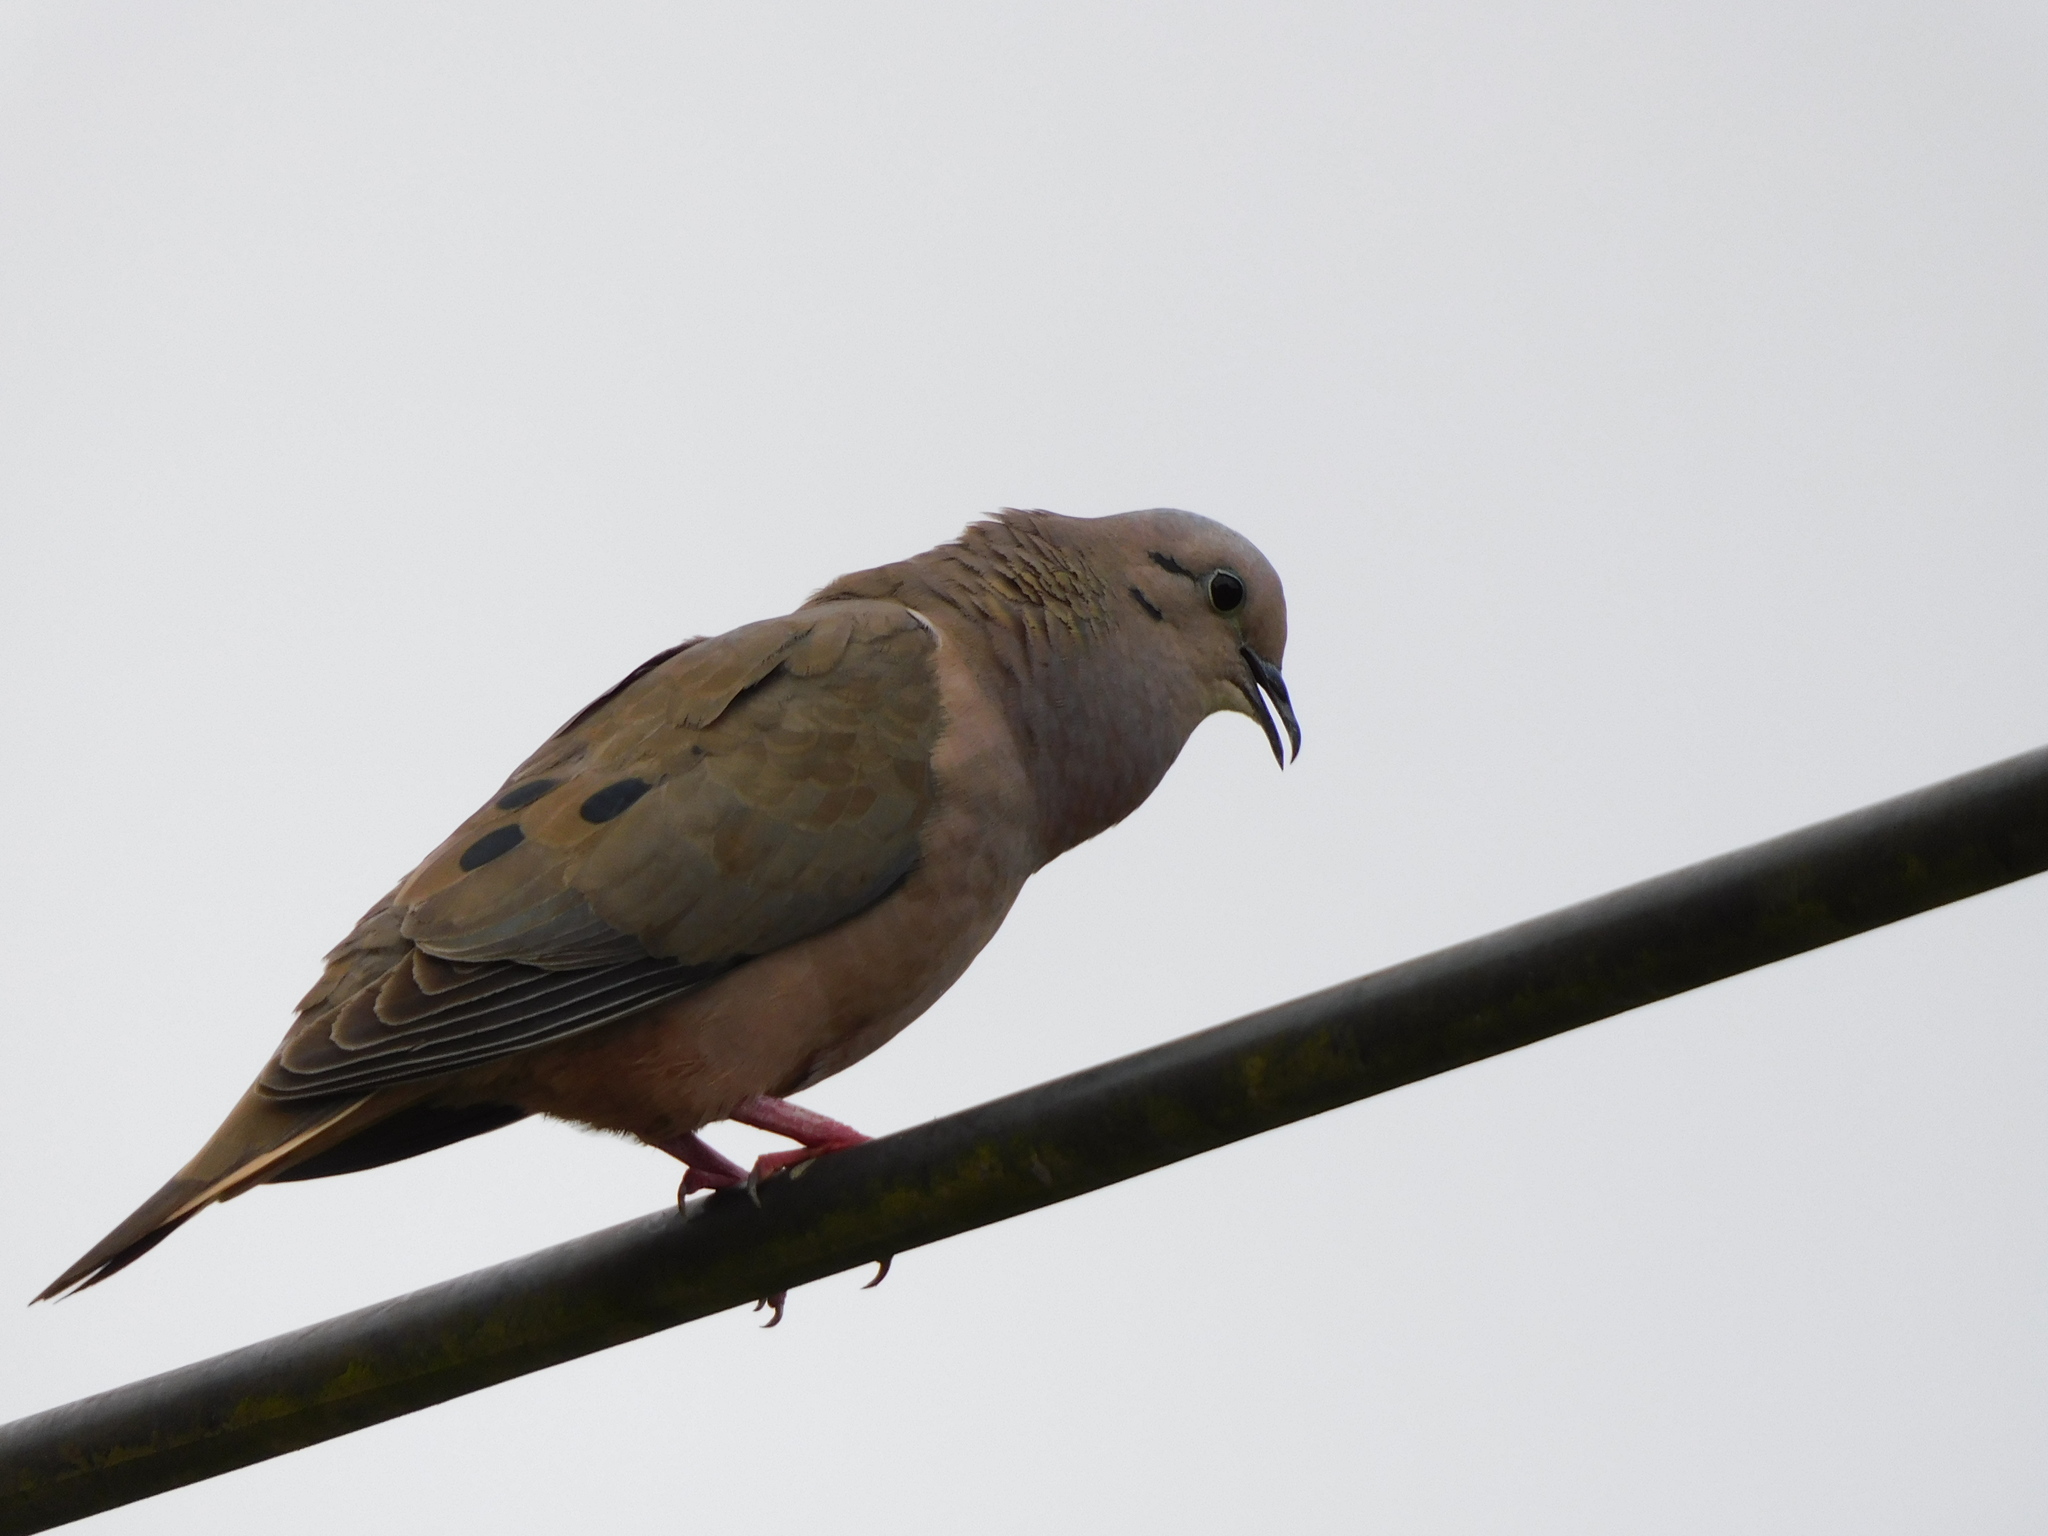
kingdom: Animalia
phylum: Chordata
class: Aves
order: Columbiformes
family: Columbidae
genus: Zenaida
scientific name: Zenaida auriculata
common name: Eared dove
